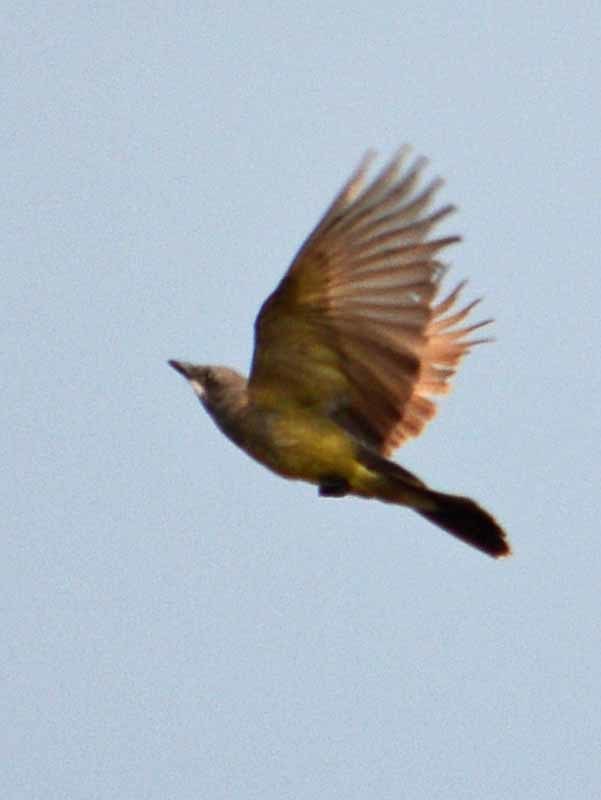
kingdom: Animalia
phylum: Chordata
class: Aves
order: Passeriformes
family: Tyrannidae
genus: Tyrannus
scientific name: Tyrannus vociferans
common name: Cassin's kingbird
